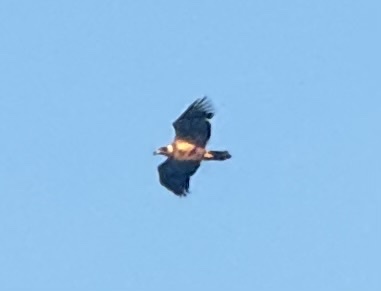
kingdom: Animalia
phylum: Chordata
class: Aves
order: Accipitriformes
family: Accipitridae
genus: Haliaeetus
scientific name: Haliaeetus leucocephalus
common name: Bald eagle
